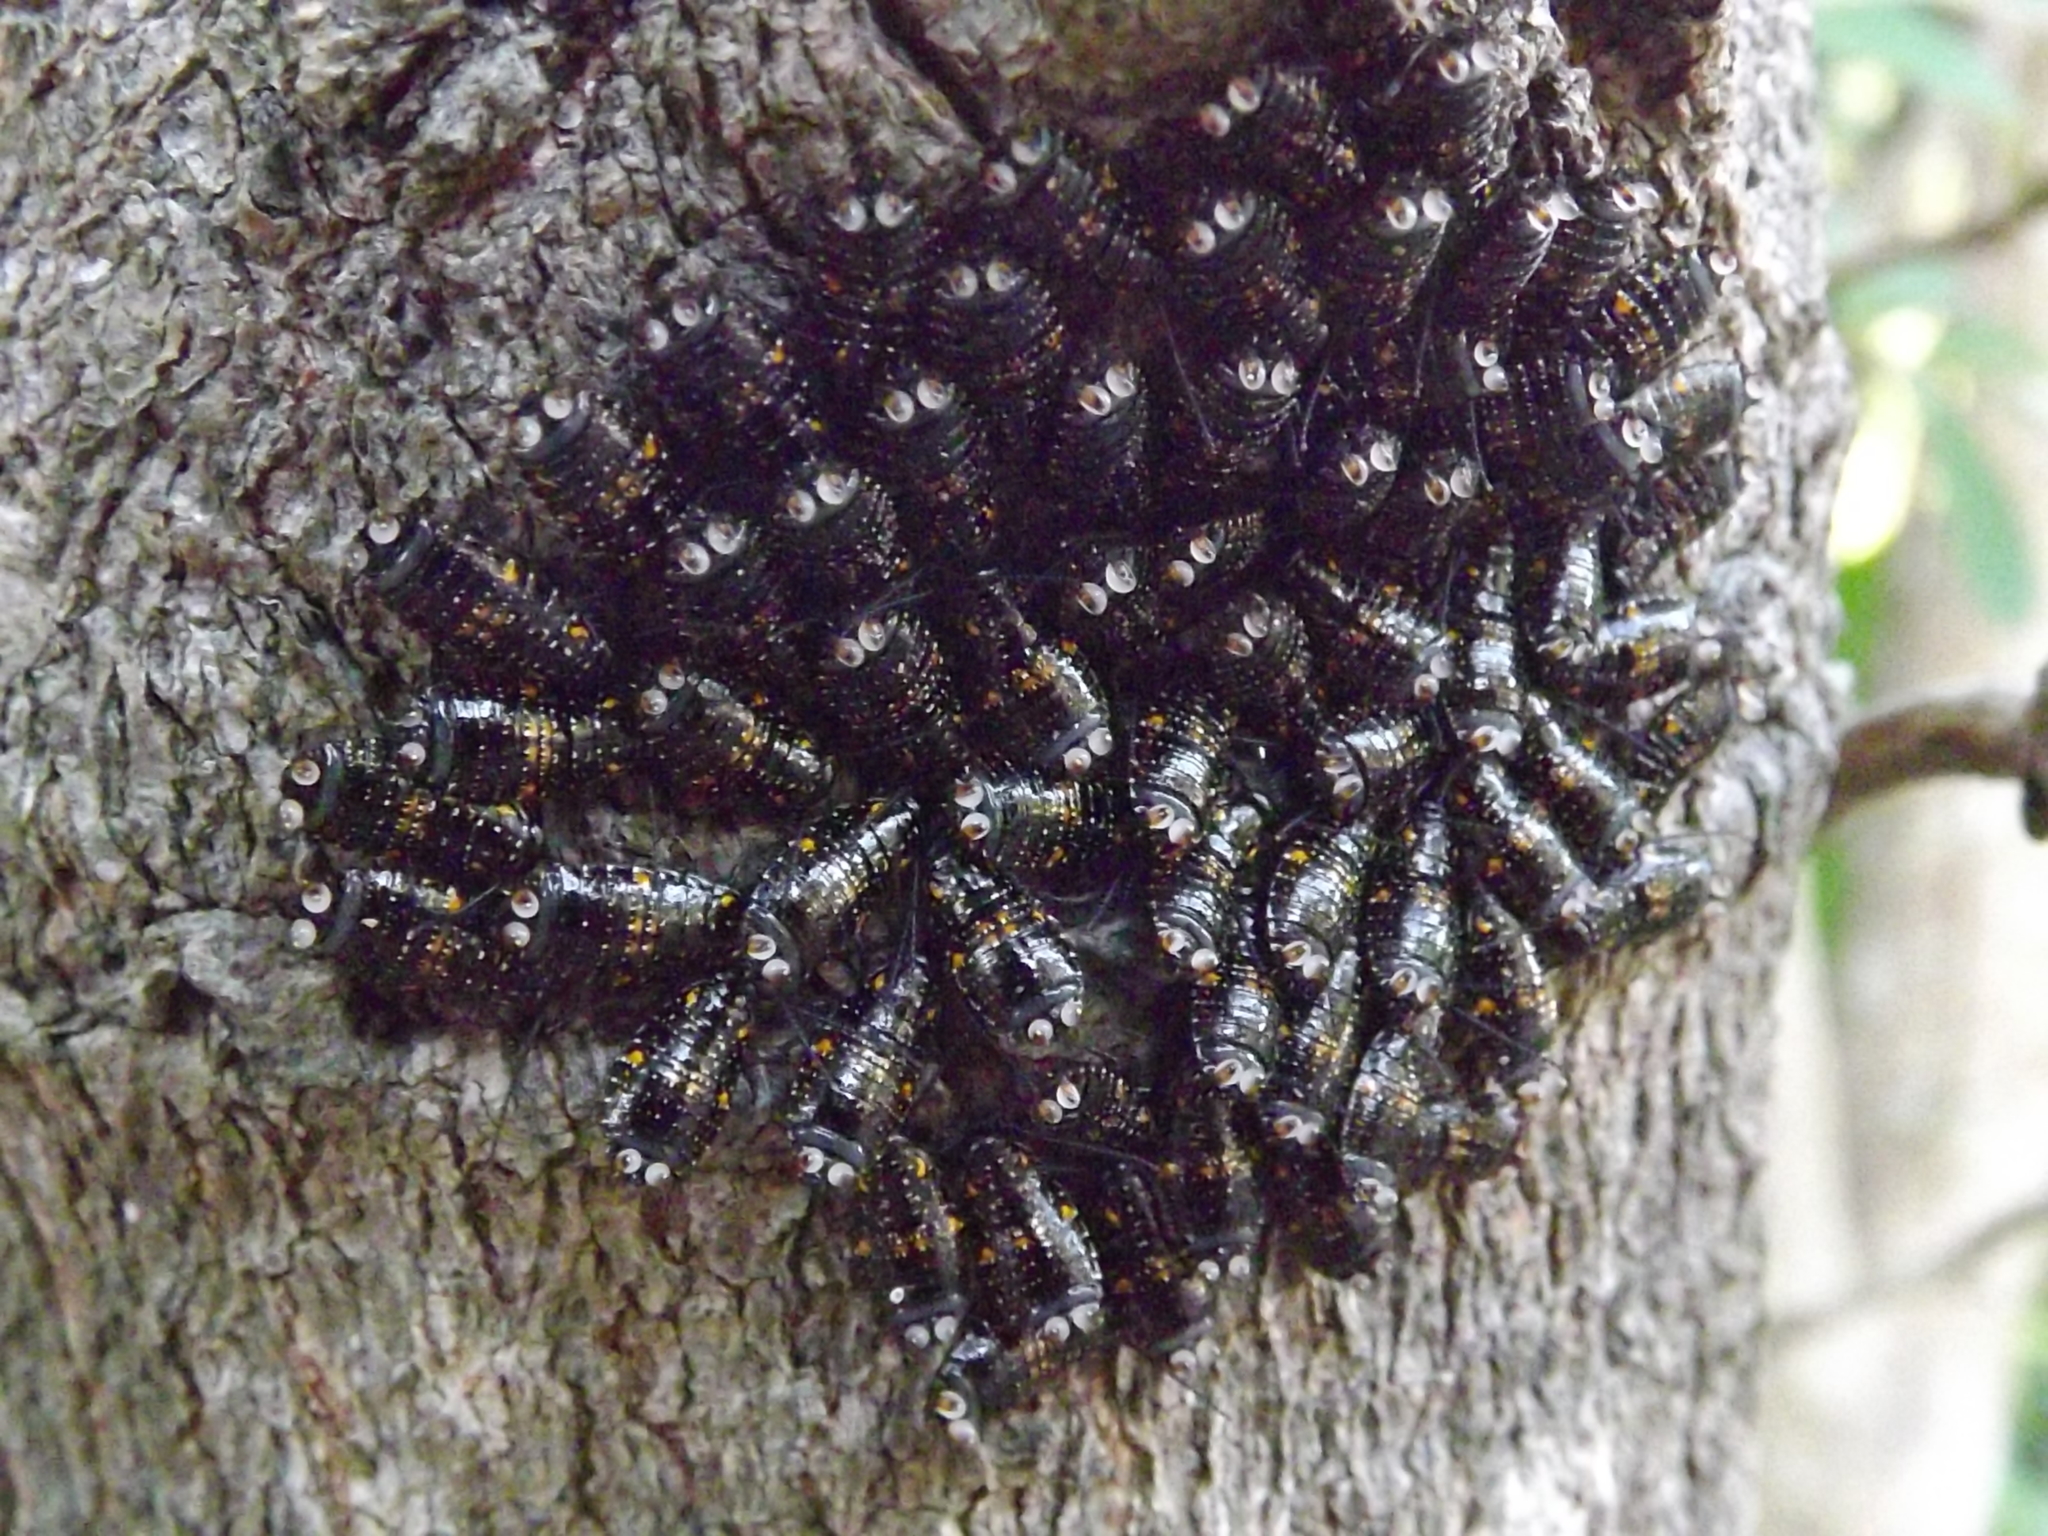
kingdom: Animalia
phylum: Arthropoda
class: Insecta
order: Blattodea
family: Blattidae
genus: Cartoblatta
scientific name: Cartoblatta pulchra
